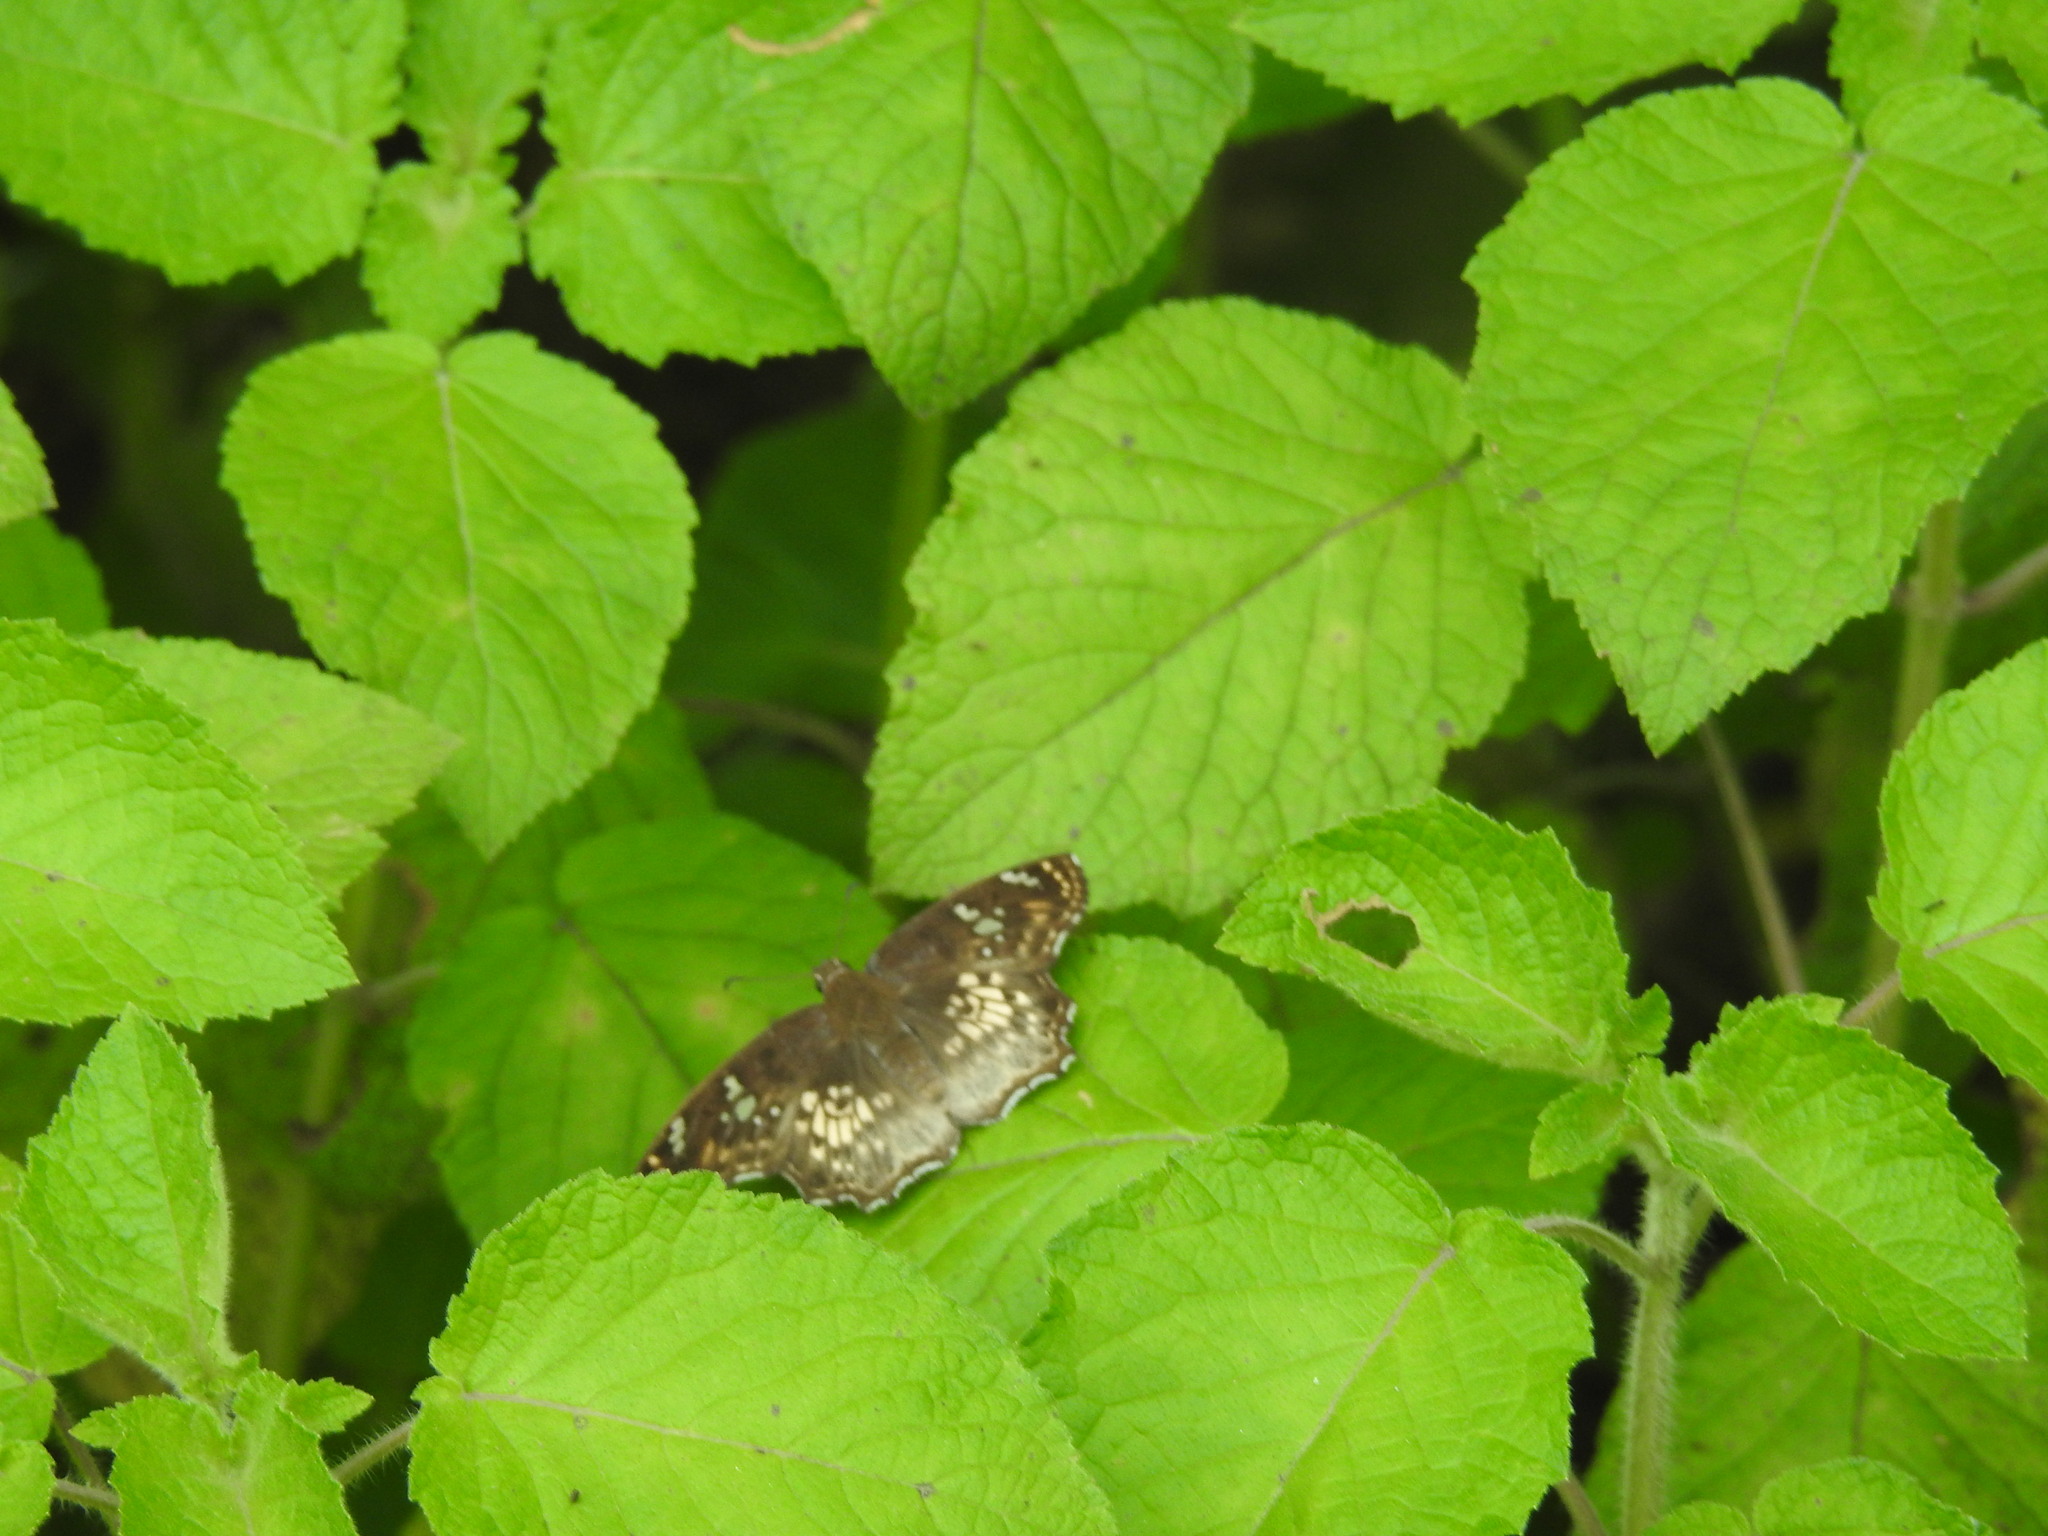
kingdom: Animalia
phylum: Arthropoda
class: Insecta
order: Lepidoptera
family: Hesperiidae
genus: Caprona
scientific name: Caprona ransonnettii
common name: Golden angle
